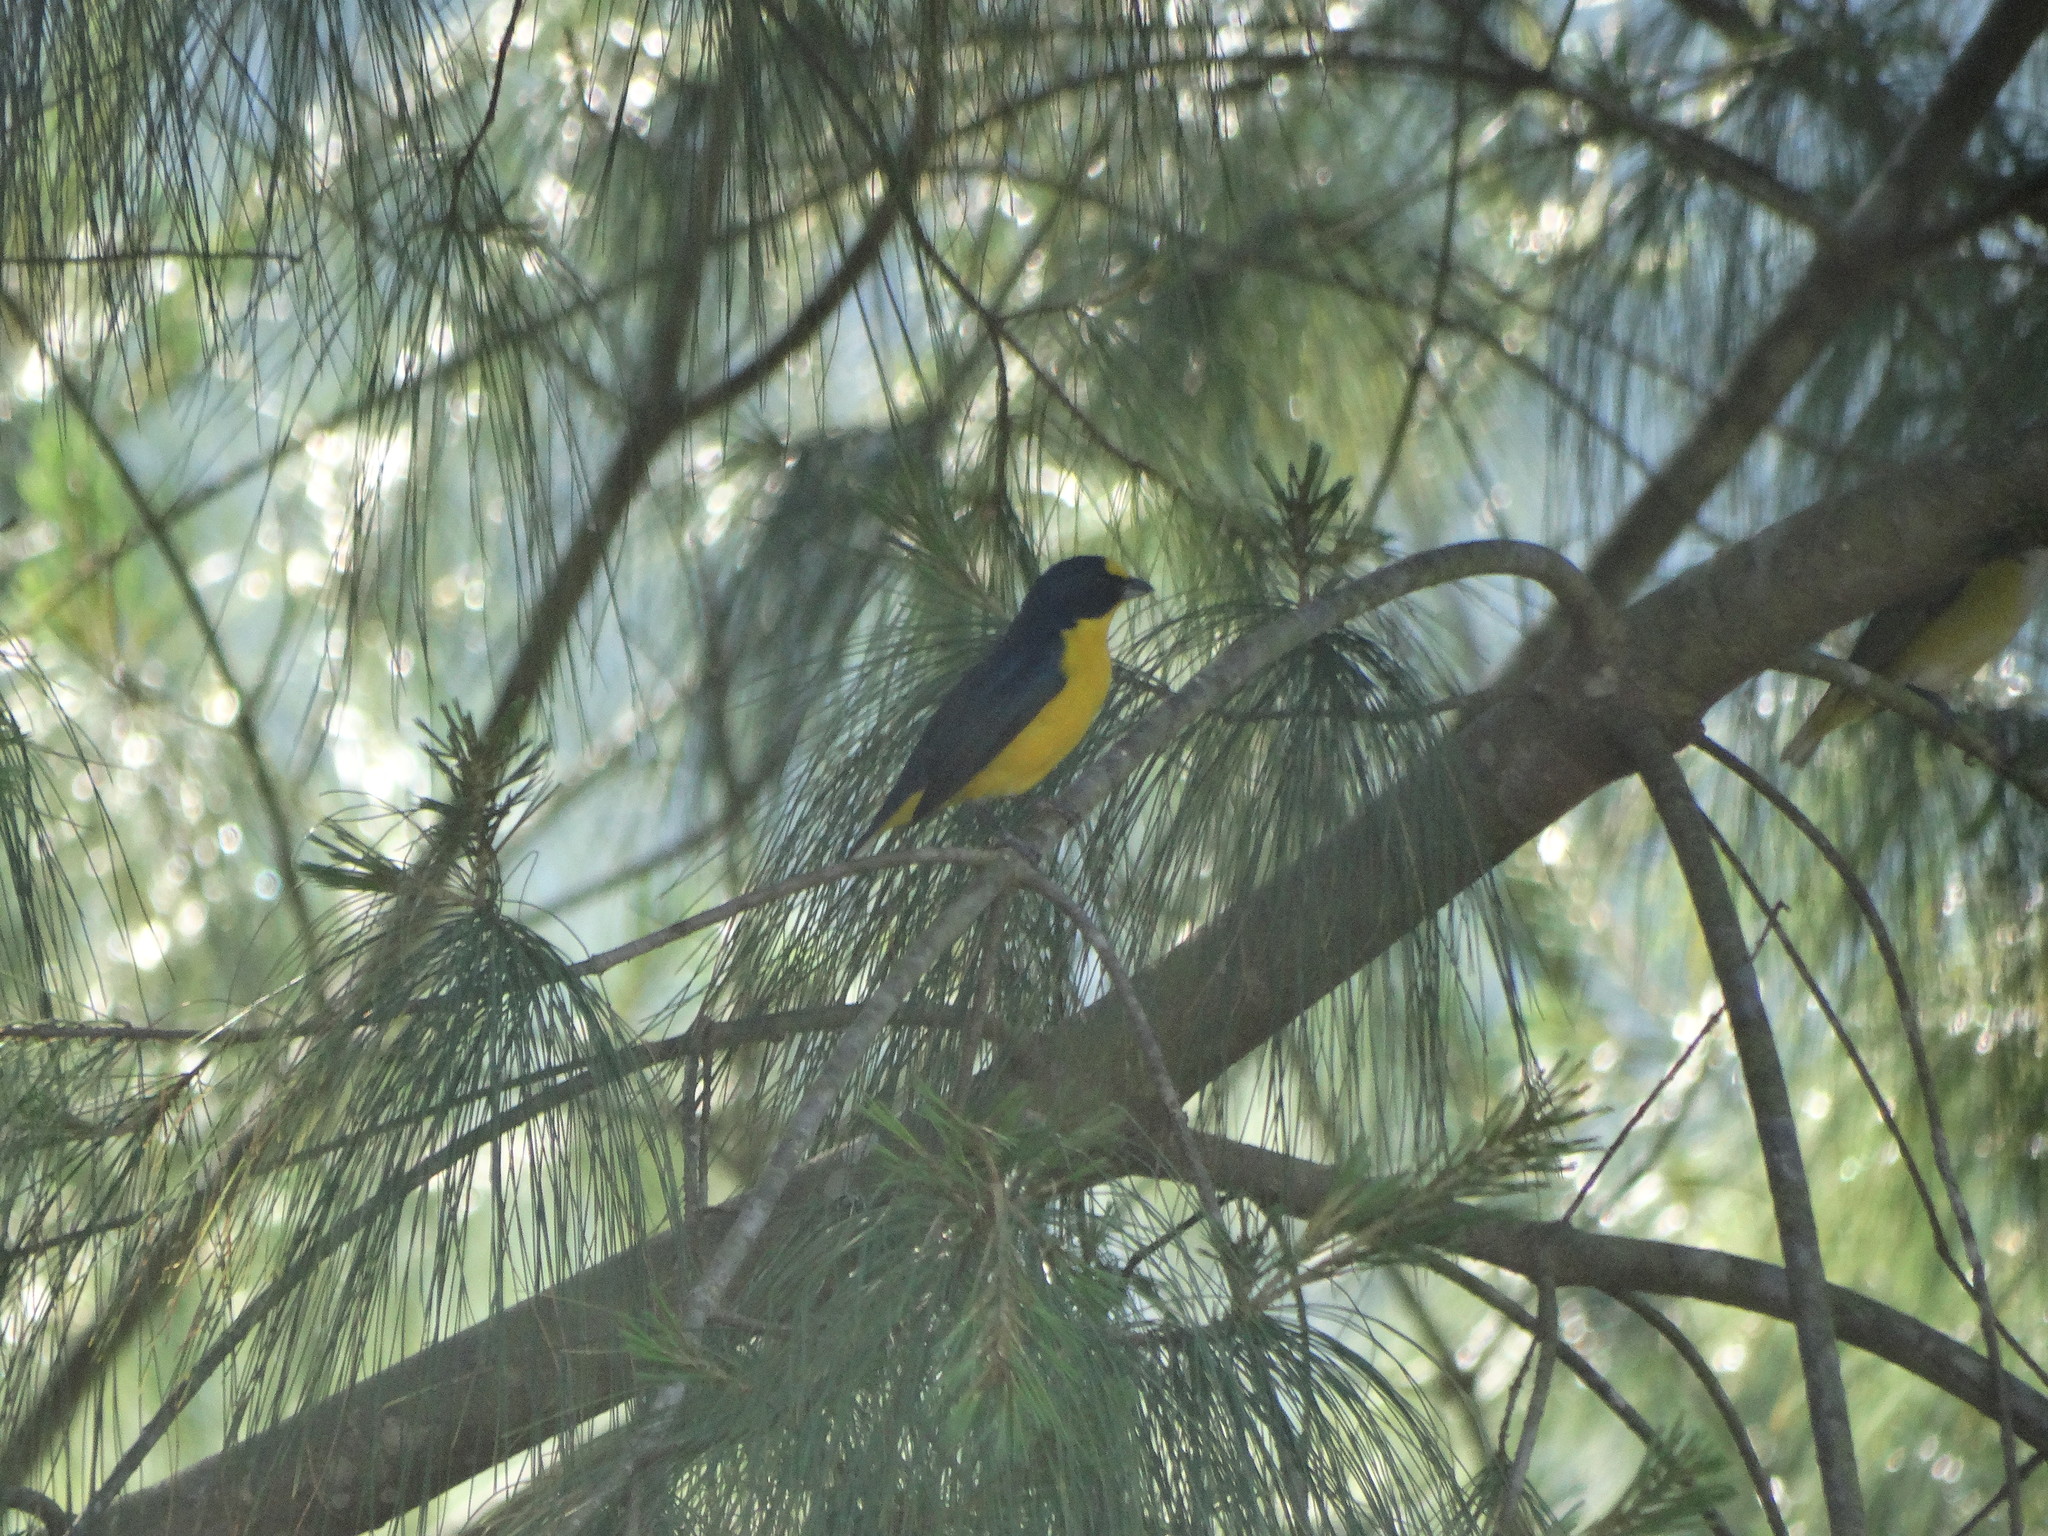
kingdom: Animalia
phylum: Chordata
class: Aves
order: Passeriformes
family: Fringillidae
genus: Euphonia
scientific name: Euphonia hirundinacea
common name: Yellow-throated euphonia
